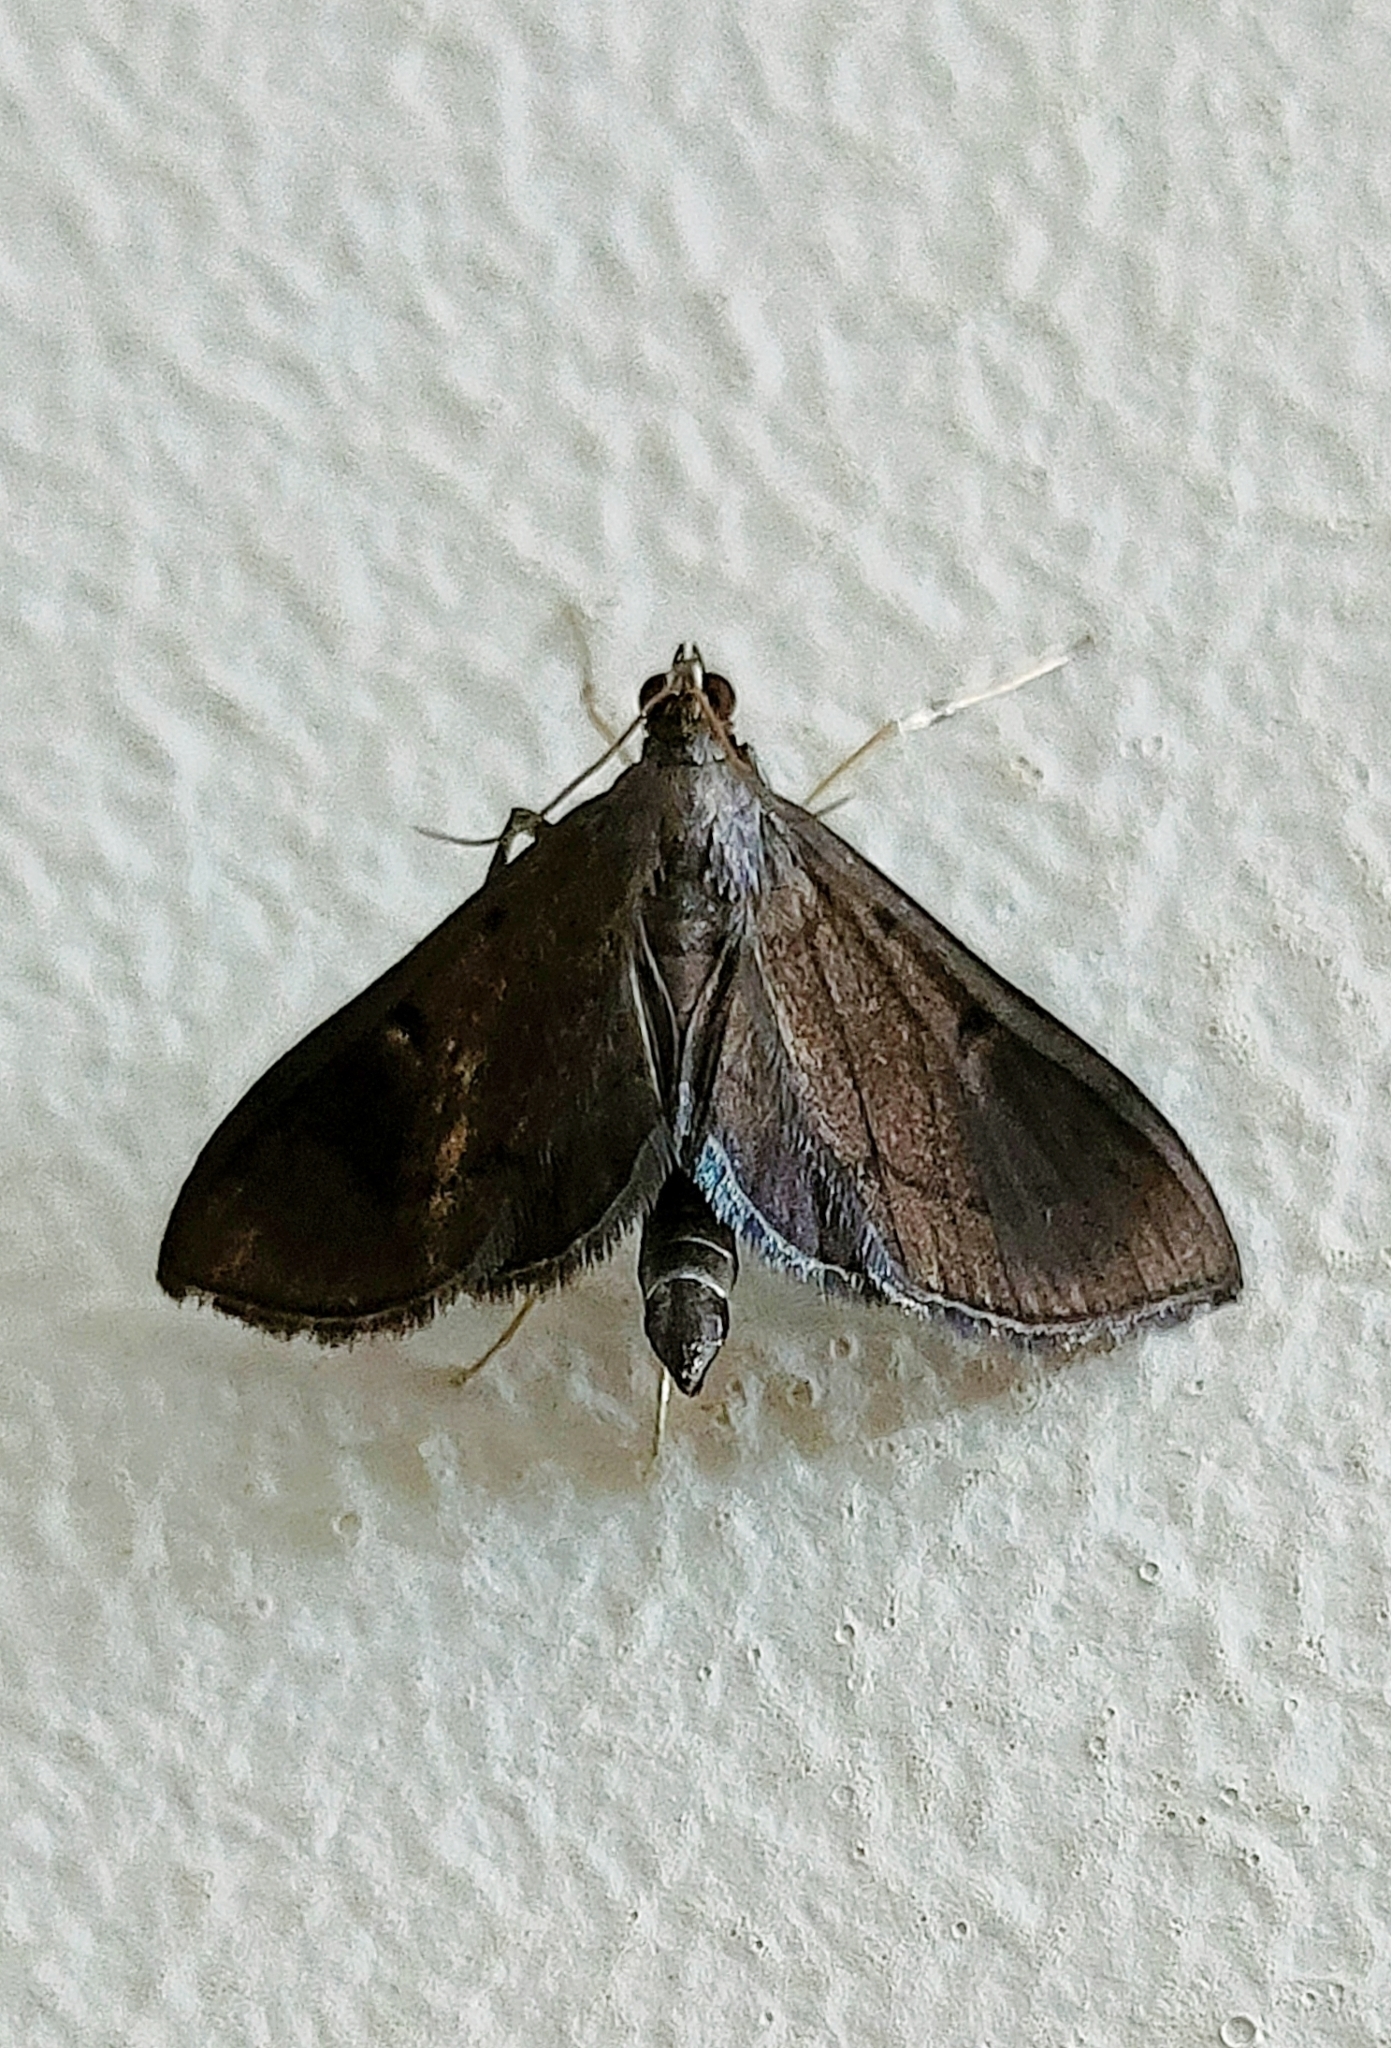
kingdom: Animalia
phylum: Arthropoda
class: Insecta
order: Lepidoptera
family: Crambidae
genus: Almonia
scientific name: Almonia truncatalis
